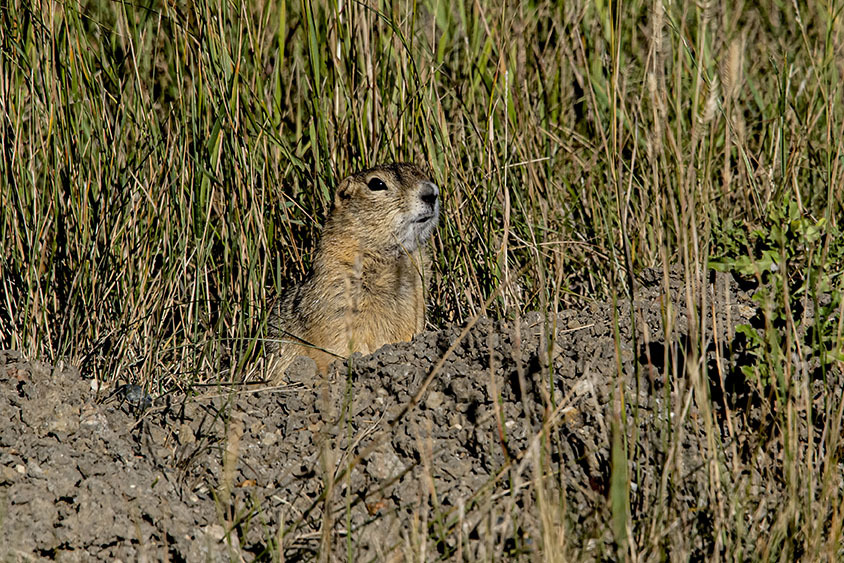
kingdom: Animalia
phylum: Chordata
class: Mammalia
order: Rodentia
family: Sciuridae
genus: Urocitellus
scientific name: Urocitellus richardsonii
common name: Richardson's ground squirrel
